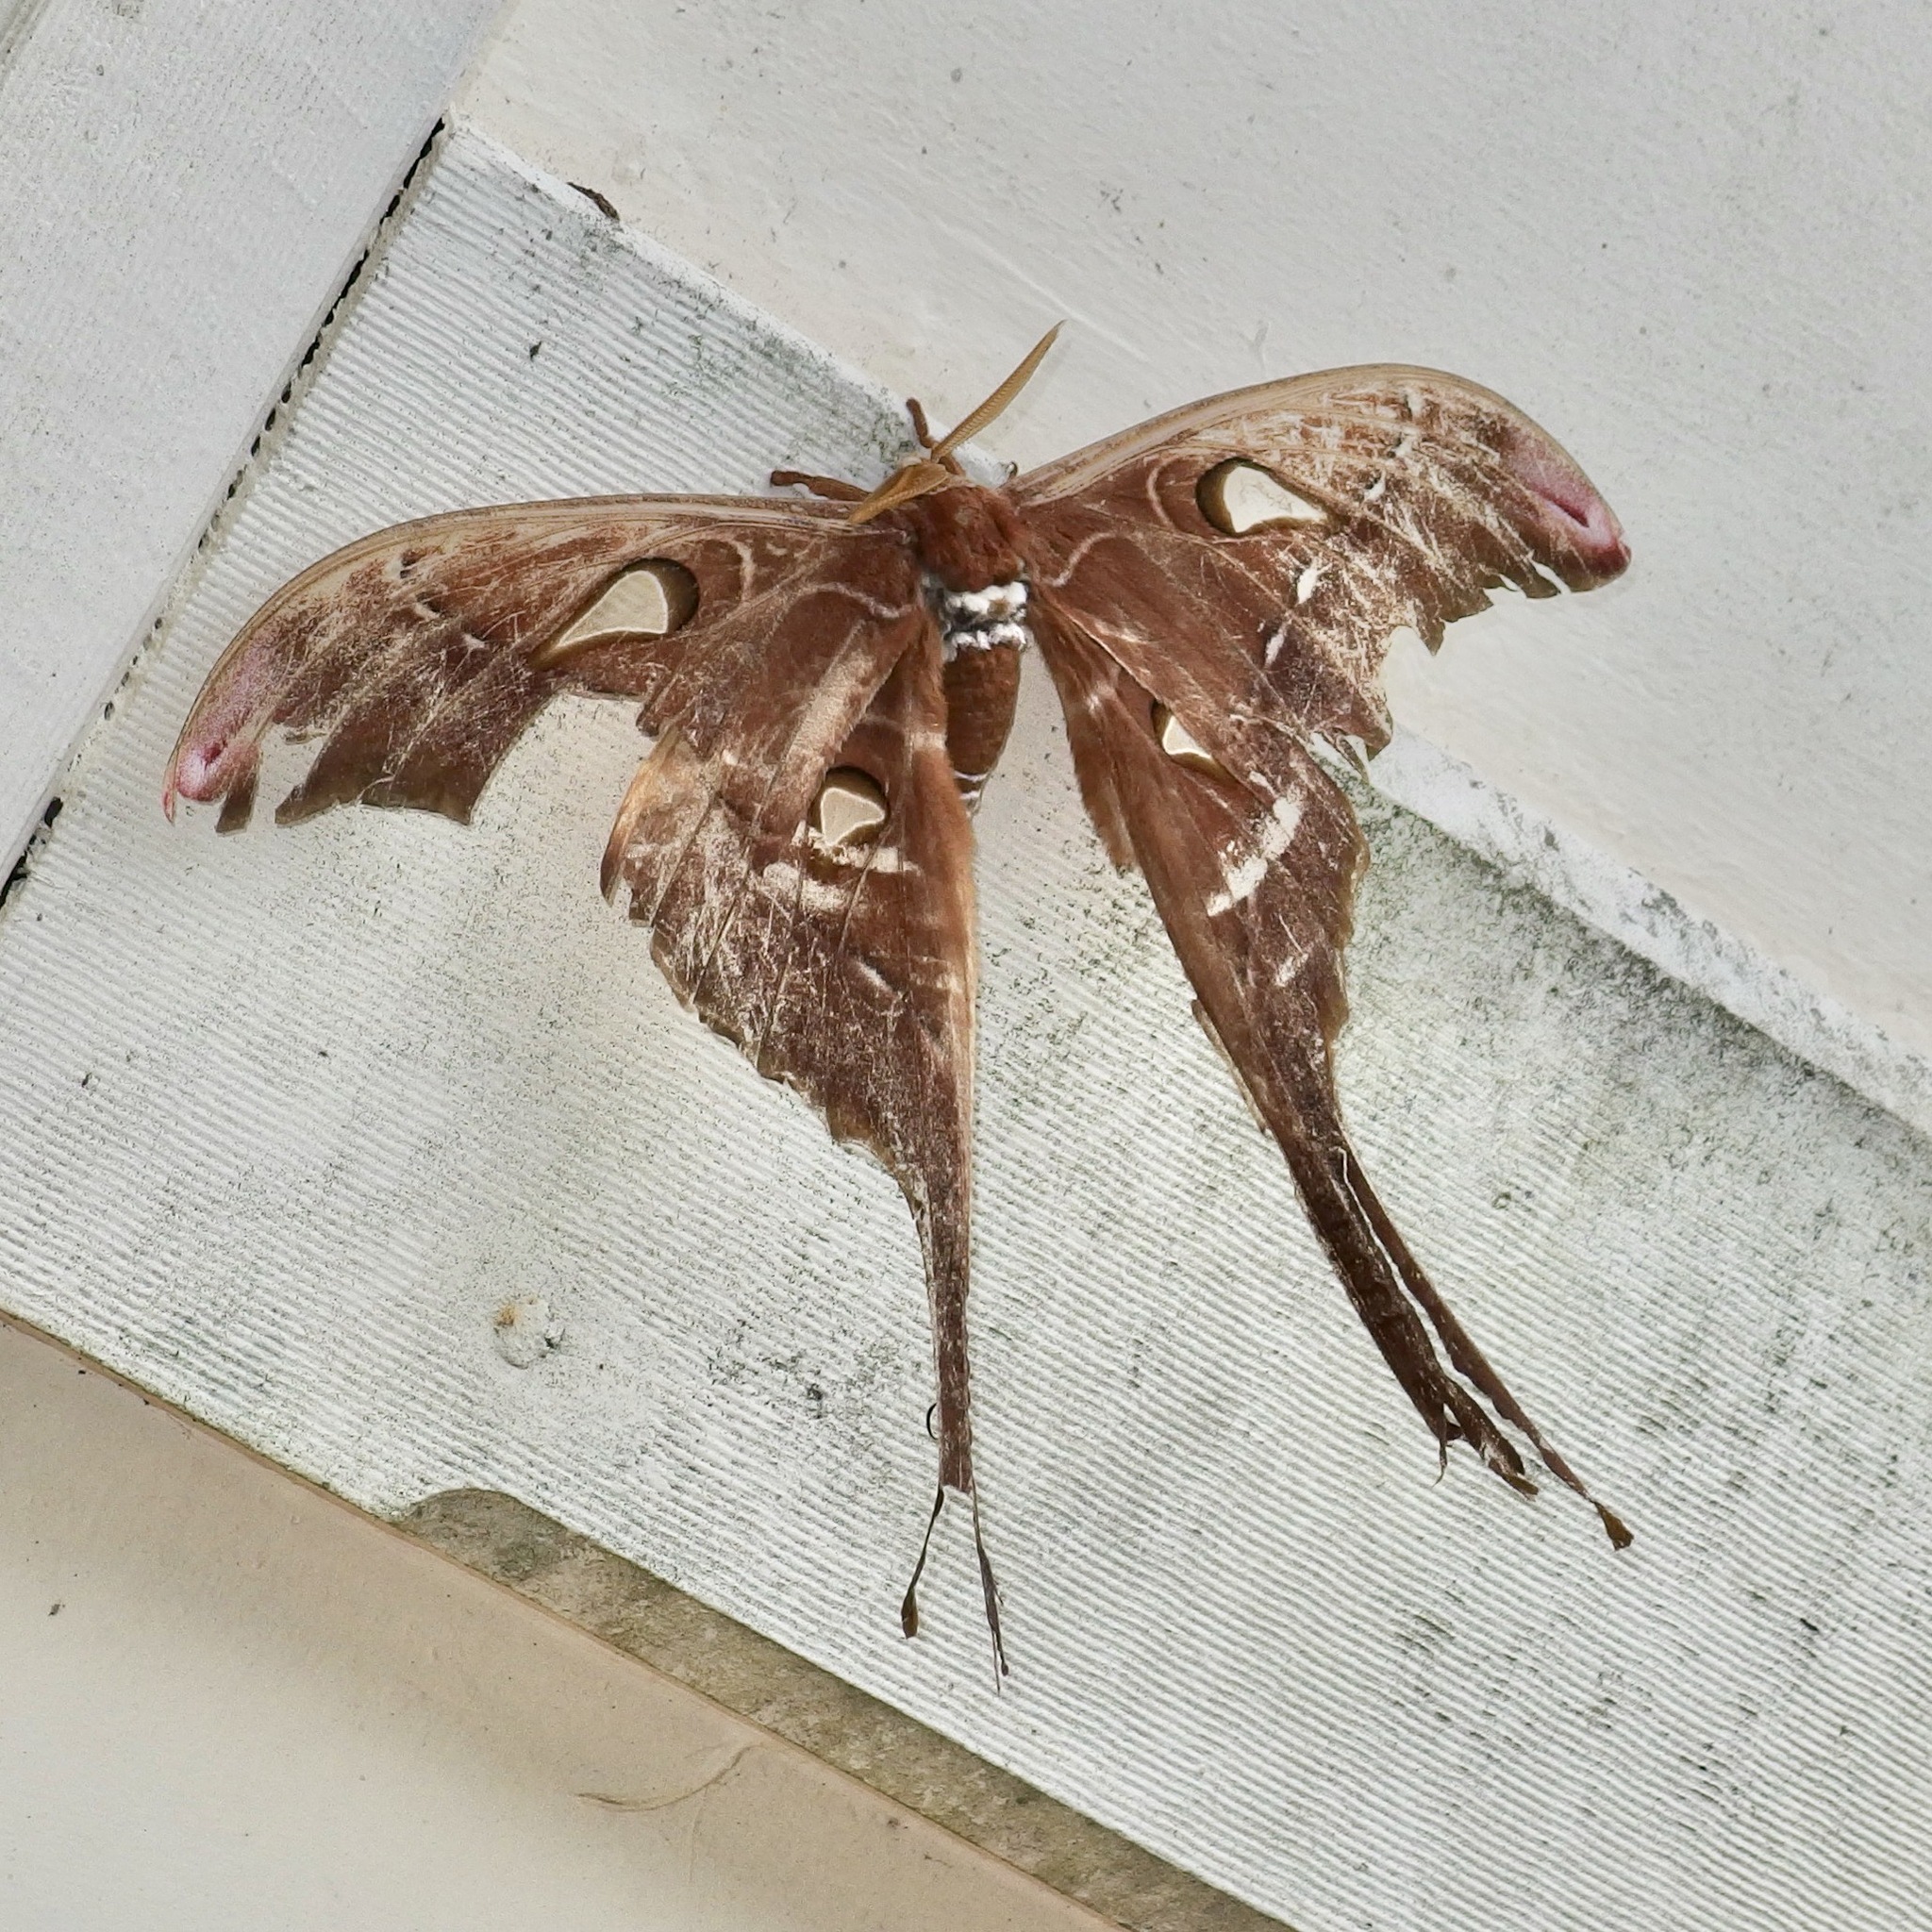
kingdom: Animalia
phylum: Arthropoda
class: Insecta
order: Lepidoptera
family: Saturniidae
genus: Coscinocera
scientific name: Coscinocera hercules
